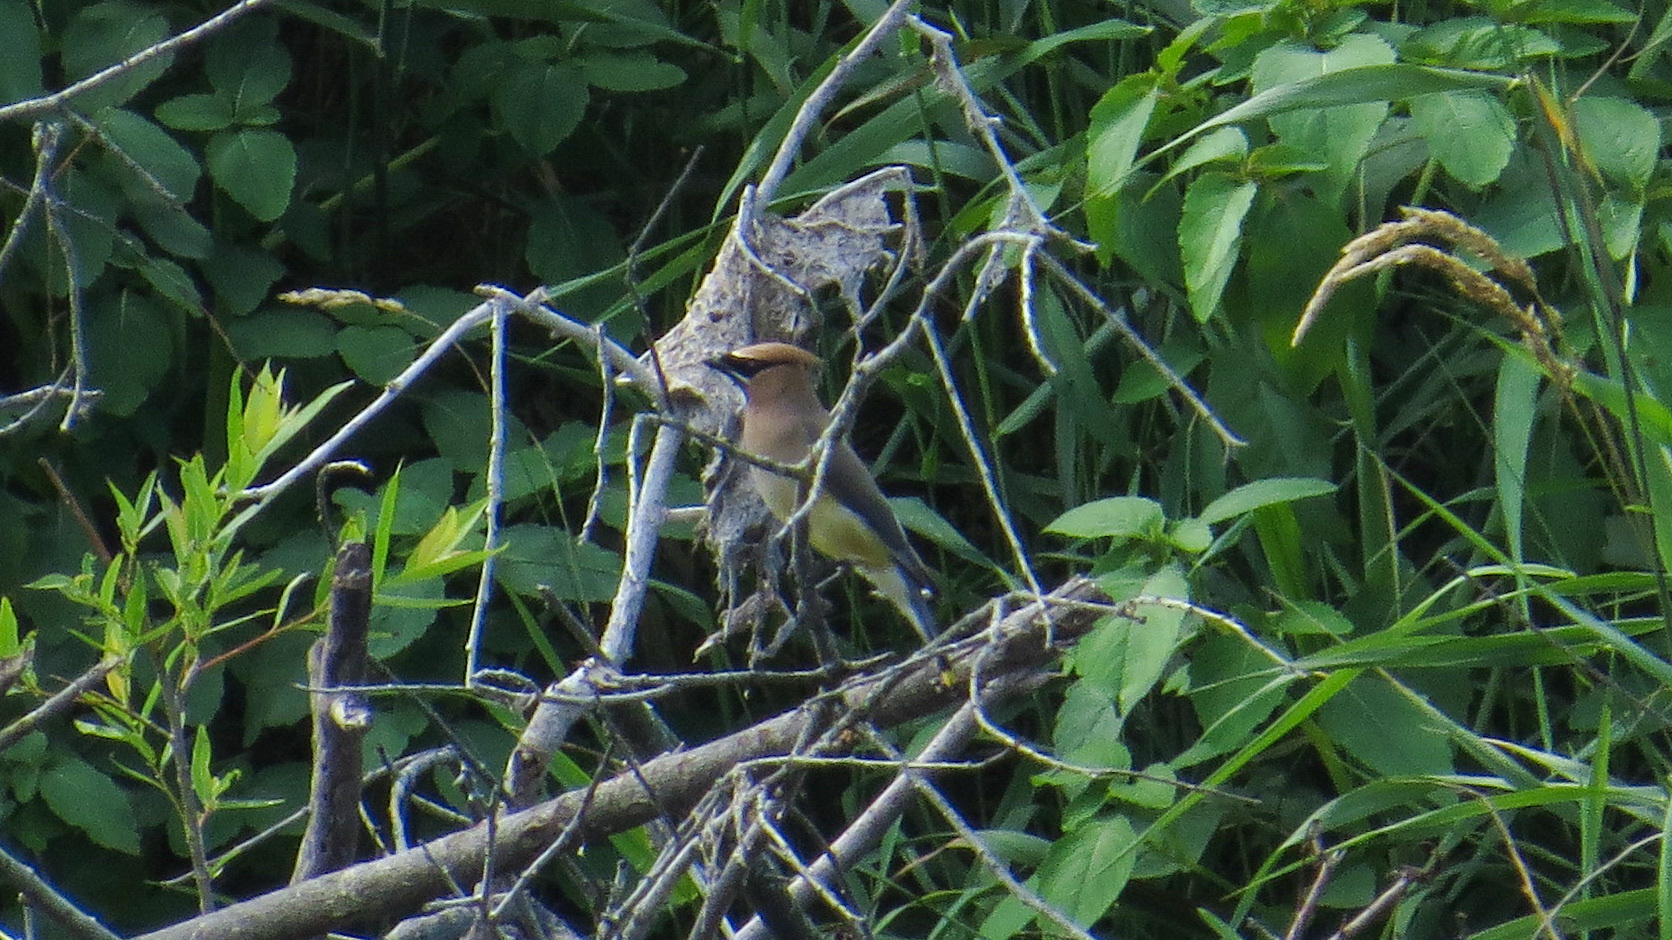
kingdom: Animalia
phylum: Chordata
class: Aves
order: Passeriformes
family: Bombycillidae
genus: Bombycilla
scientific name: Bombycilla cedrorum
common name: Cedar waxwing
